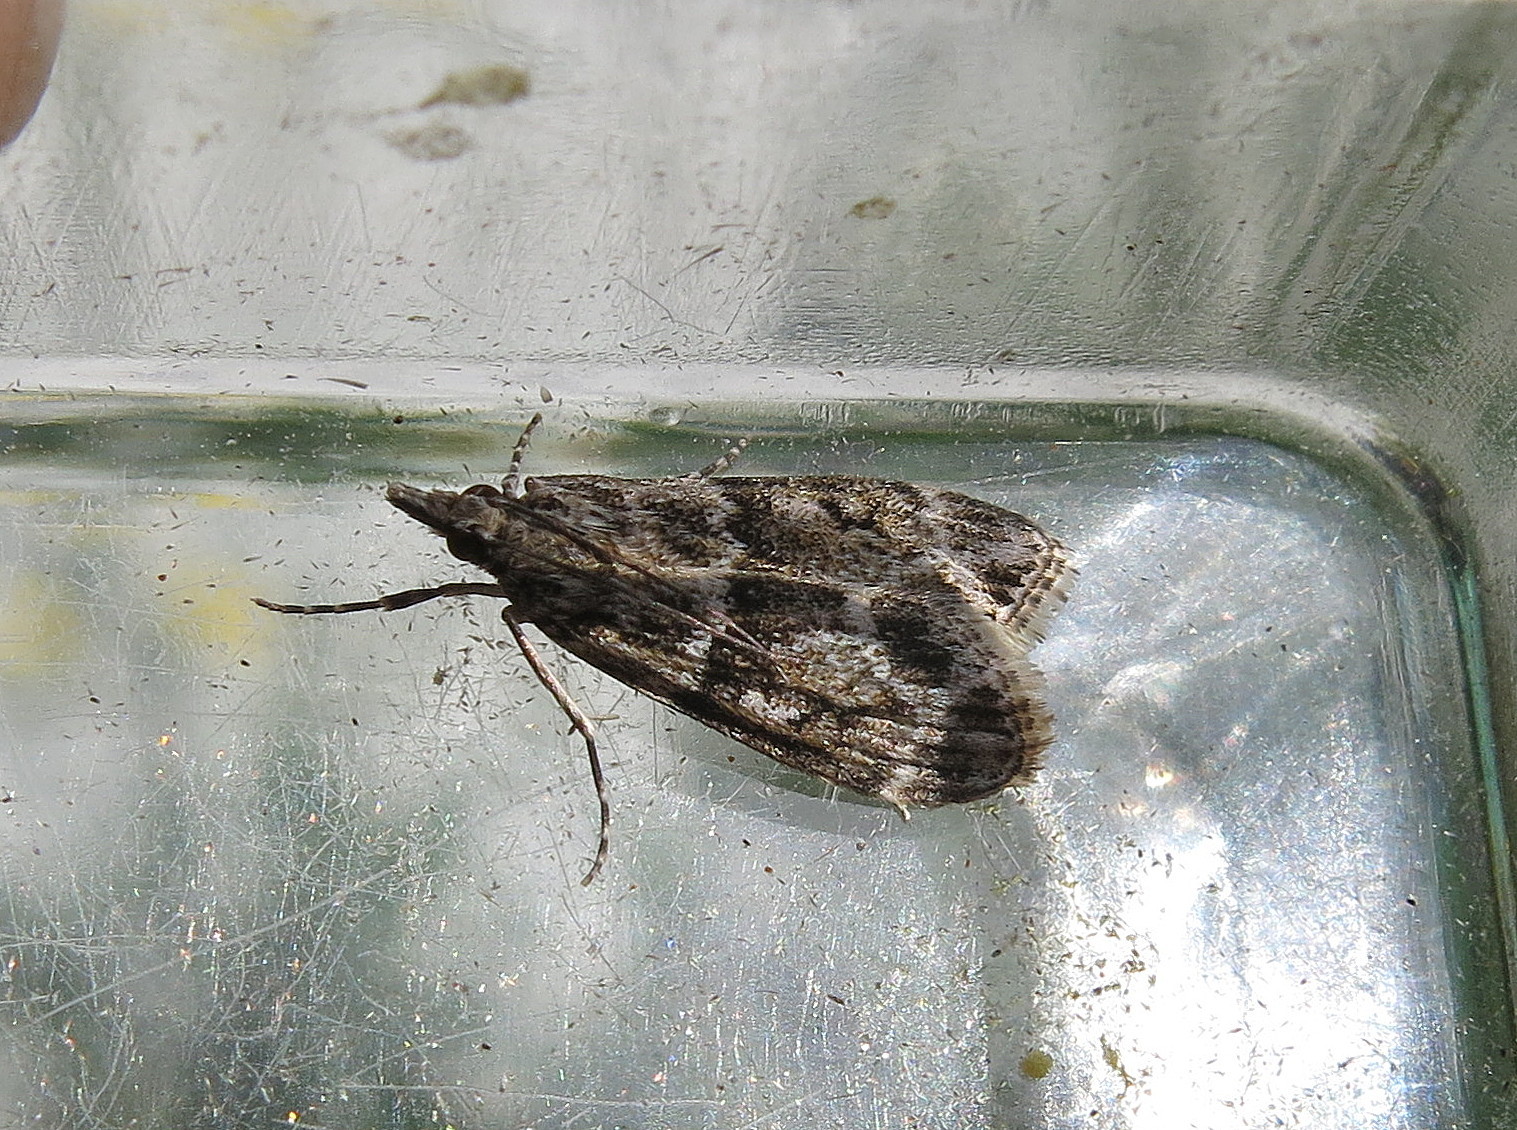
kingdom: Animalia
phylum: Arthropoda
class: Insecta
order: Lepidoptera
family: Crambidae
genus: Eudonia
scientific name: Eudonia mercurella
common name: Small grey
